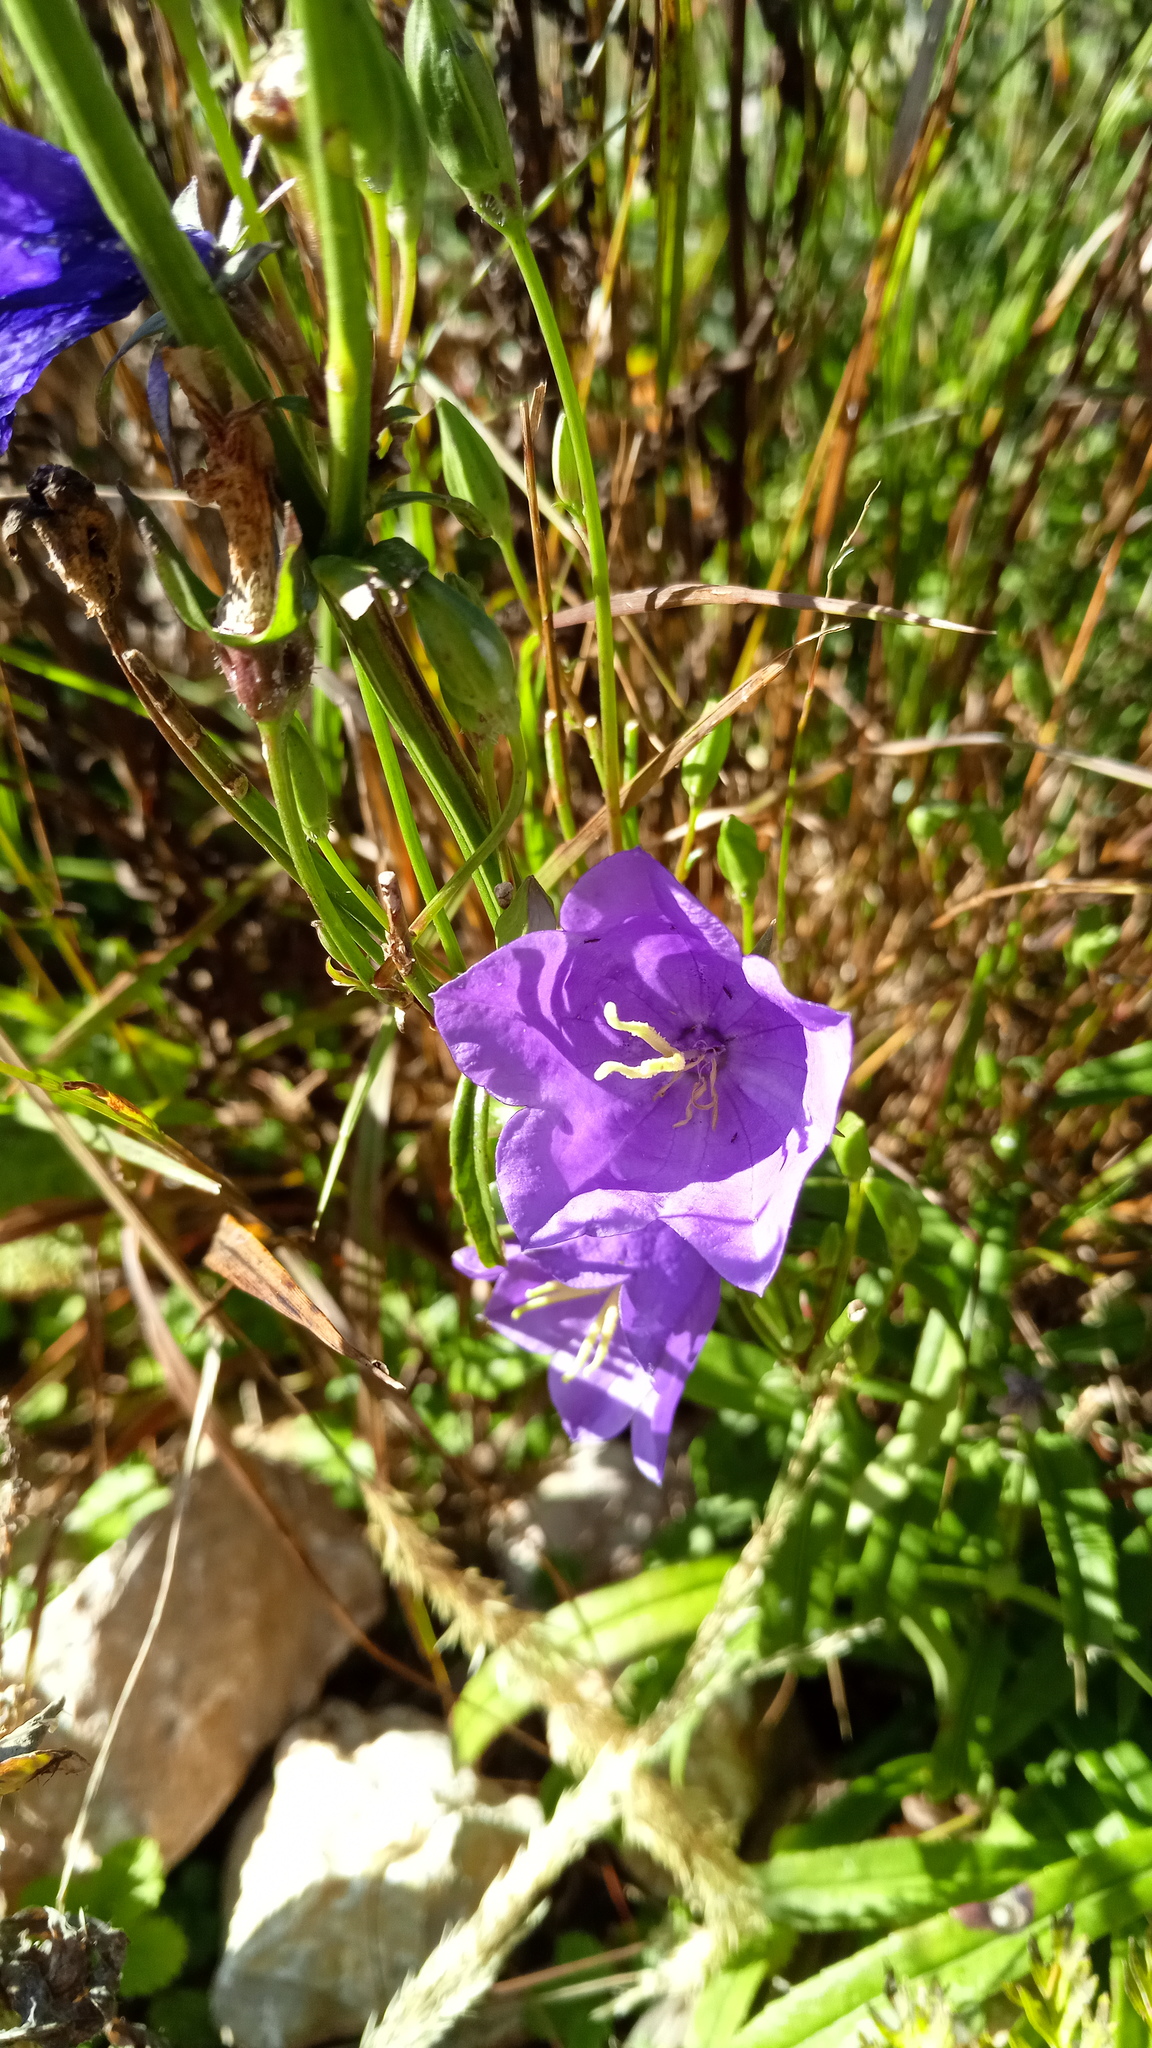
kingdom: Plantae
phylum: Tracheophyta
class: Magnoliopsida
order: Asterales
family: Campanulaceae
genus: Campanula
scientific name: Campanula persicifolia
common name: Peach-leaved bellflower
